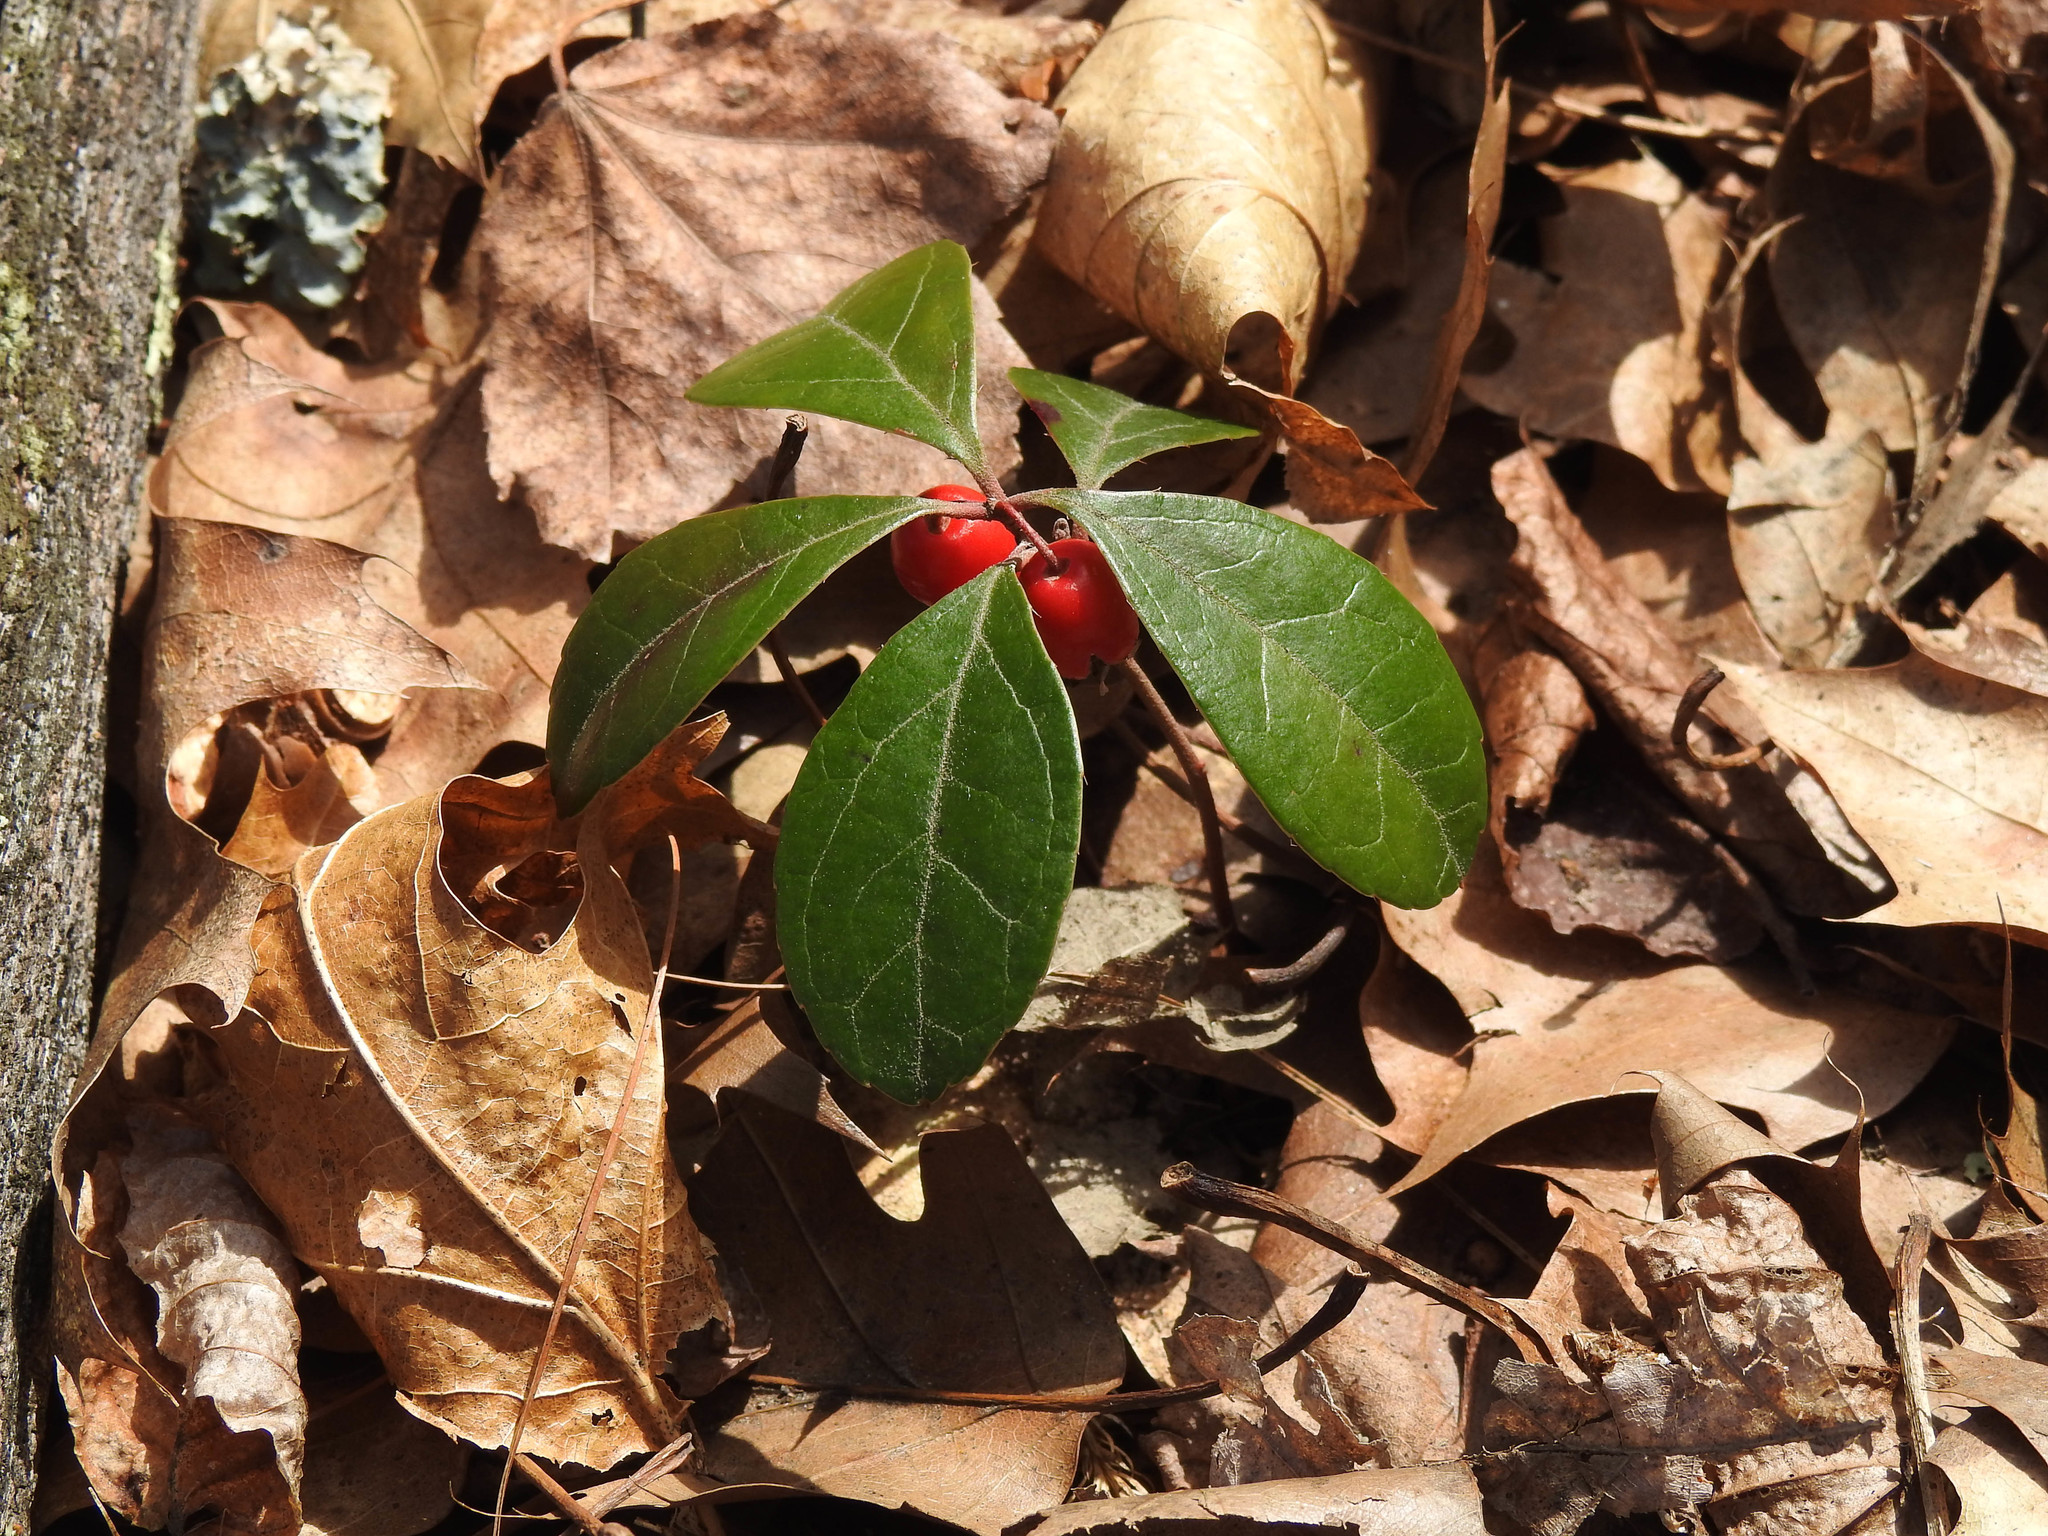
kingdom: Plantae
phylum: Tracheophyta
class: Magnoliopsida
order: Ericales
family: Ericaceae
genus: Gaultheria
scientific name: Gaultheria procumbens
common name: Checkerberry
